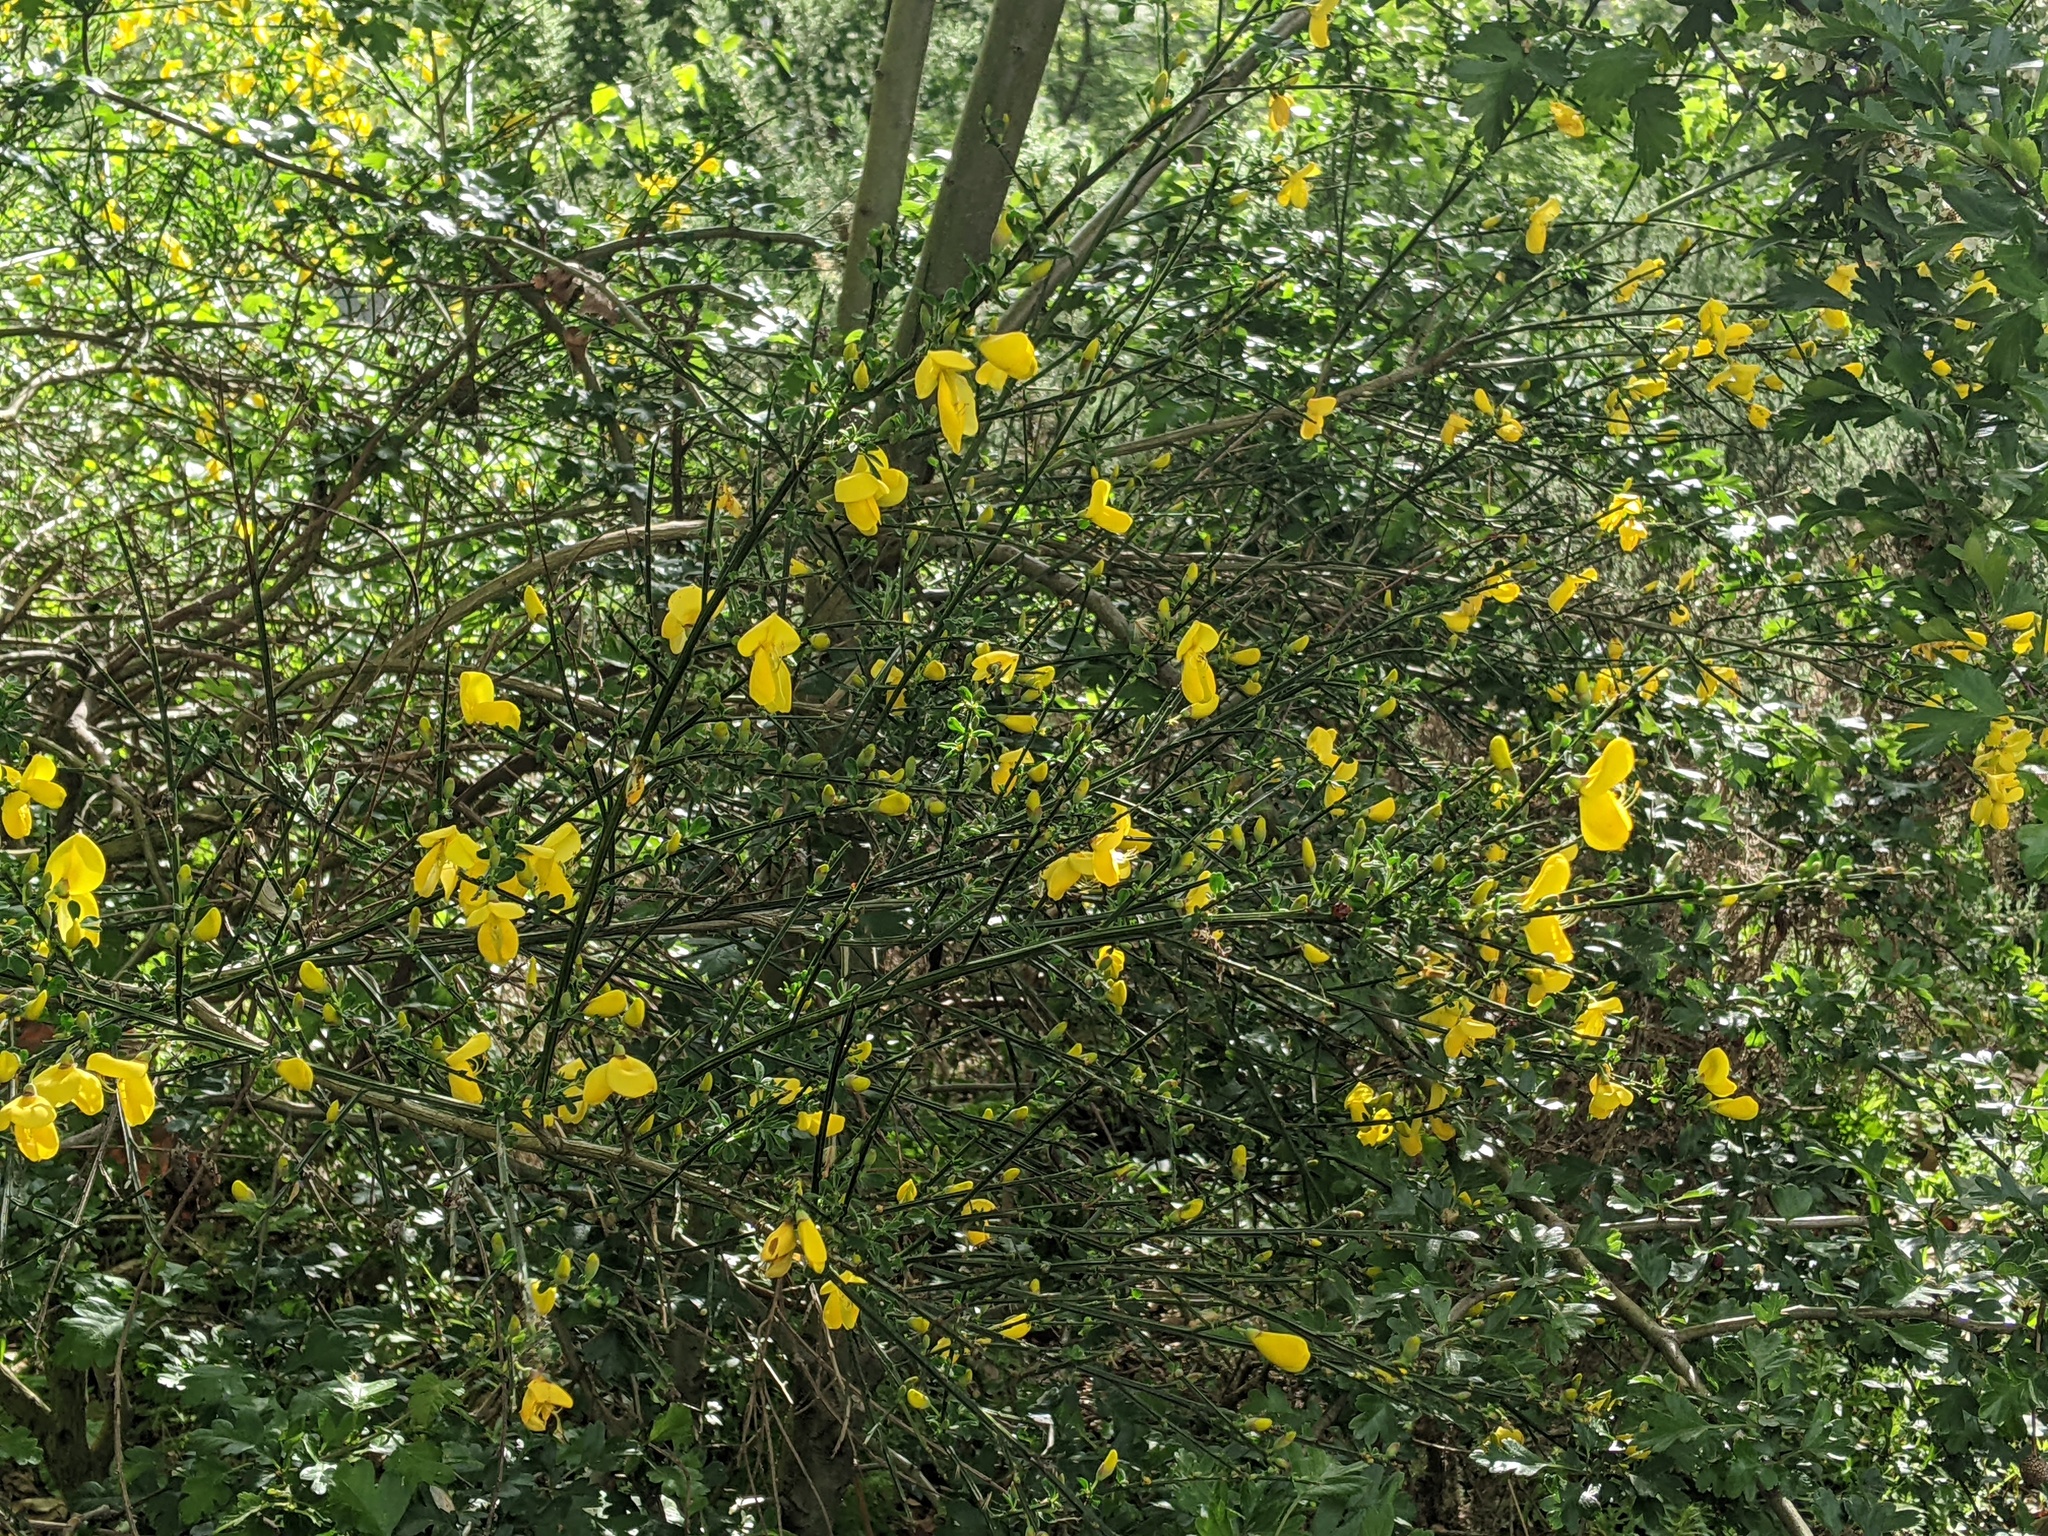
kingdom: Plantae
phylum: Tracheophyta
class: Magnoliopsida
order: Fabales
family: Fabaceae
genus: Cytisus
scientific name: Cytisus scoparius
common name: Scotch broom
